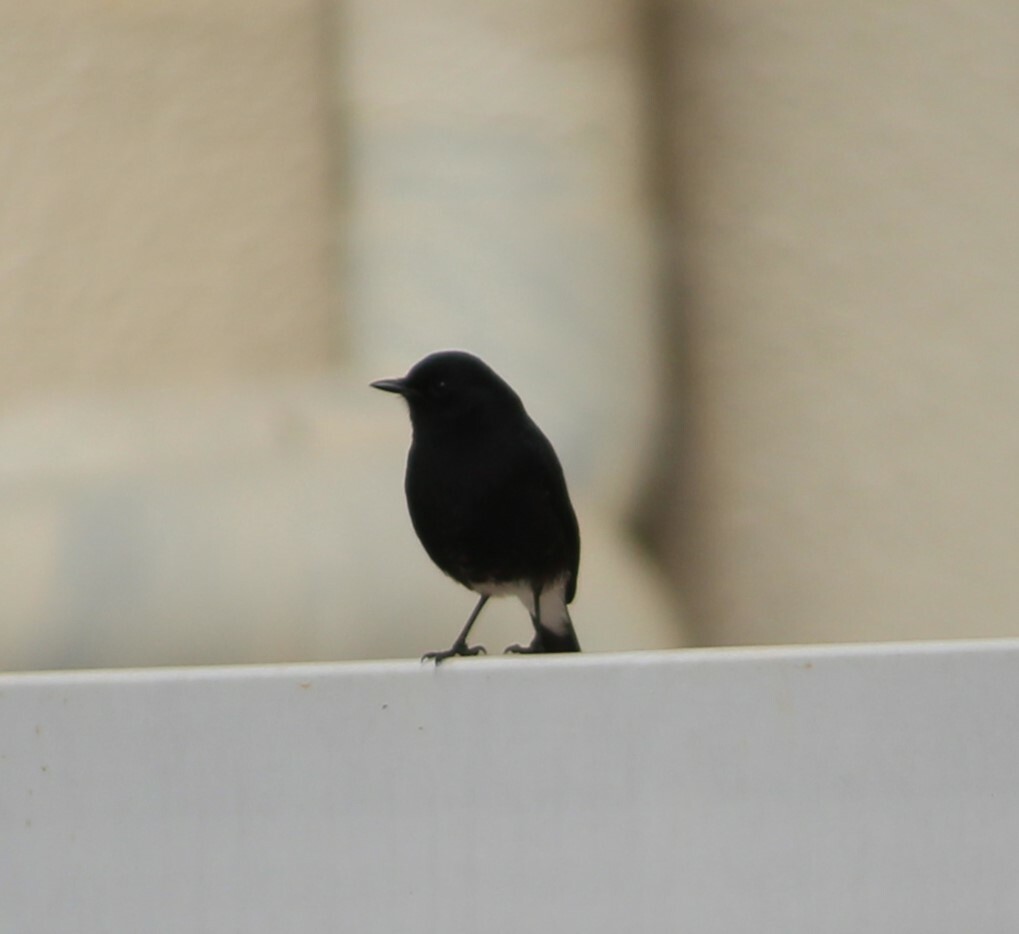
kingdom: Animalia
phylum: Chordata
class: Aves
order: Passeriformes
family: Muscicapidae
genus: Saxicola
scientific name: Saxicola caprata
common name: Pied bush chat
